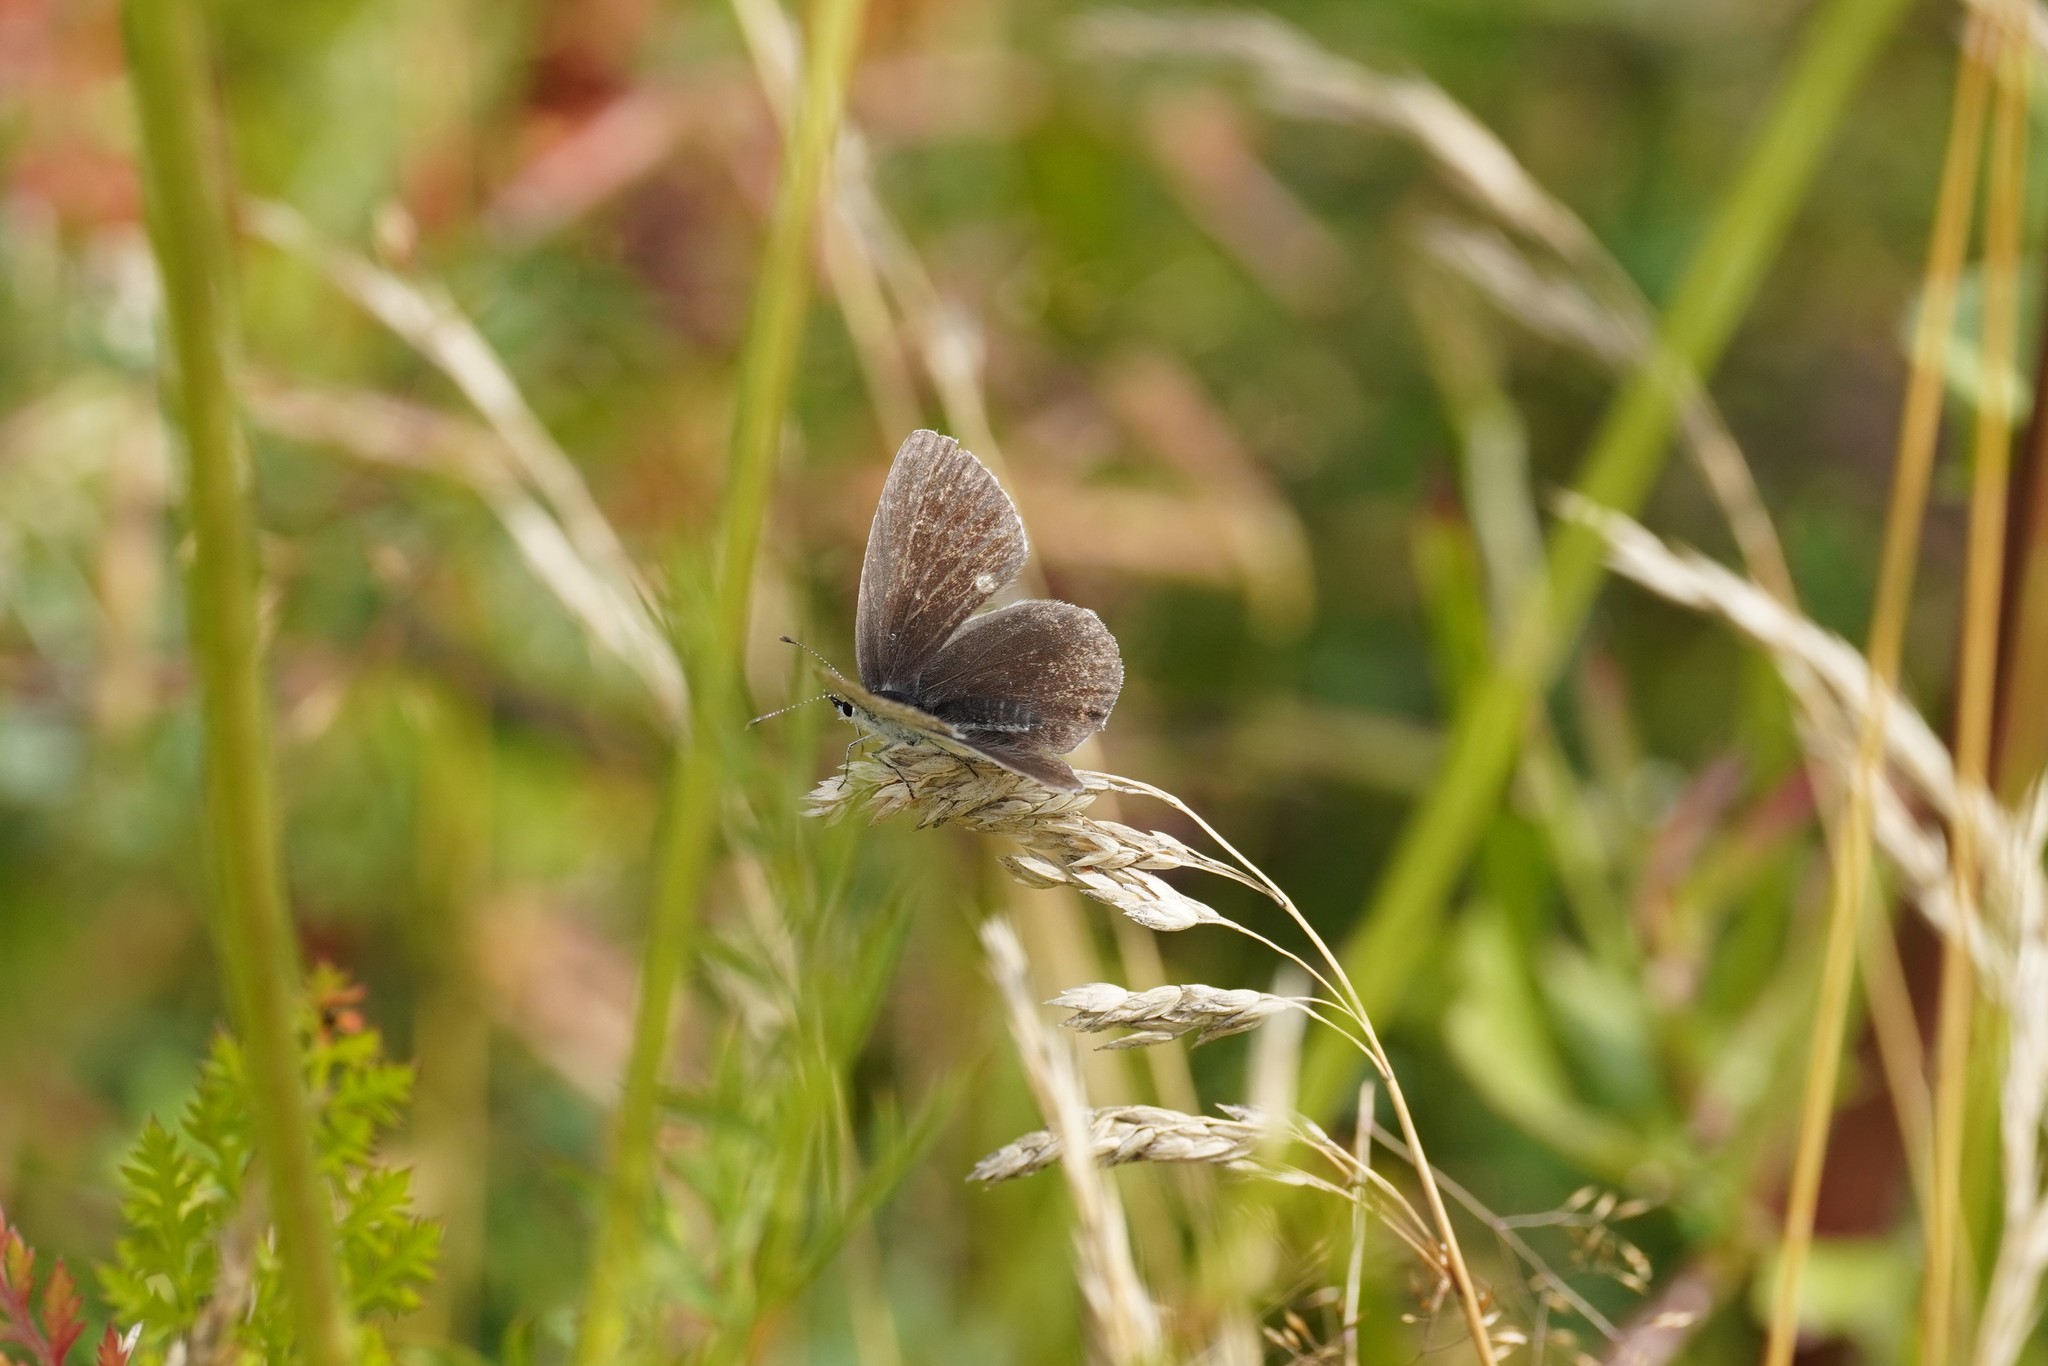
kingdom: Animalia
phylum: Arthropoda
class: Insecta
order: Lepidoptera
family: Lycaenidae
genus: Elkalyce
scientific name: Elkalyce argiades
